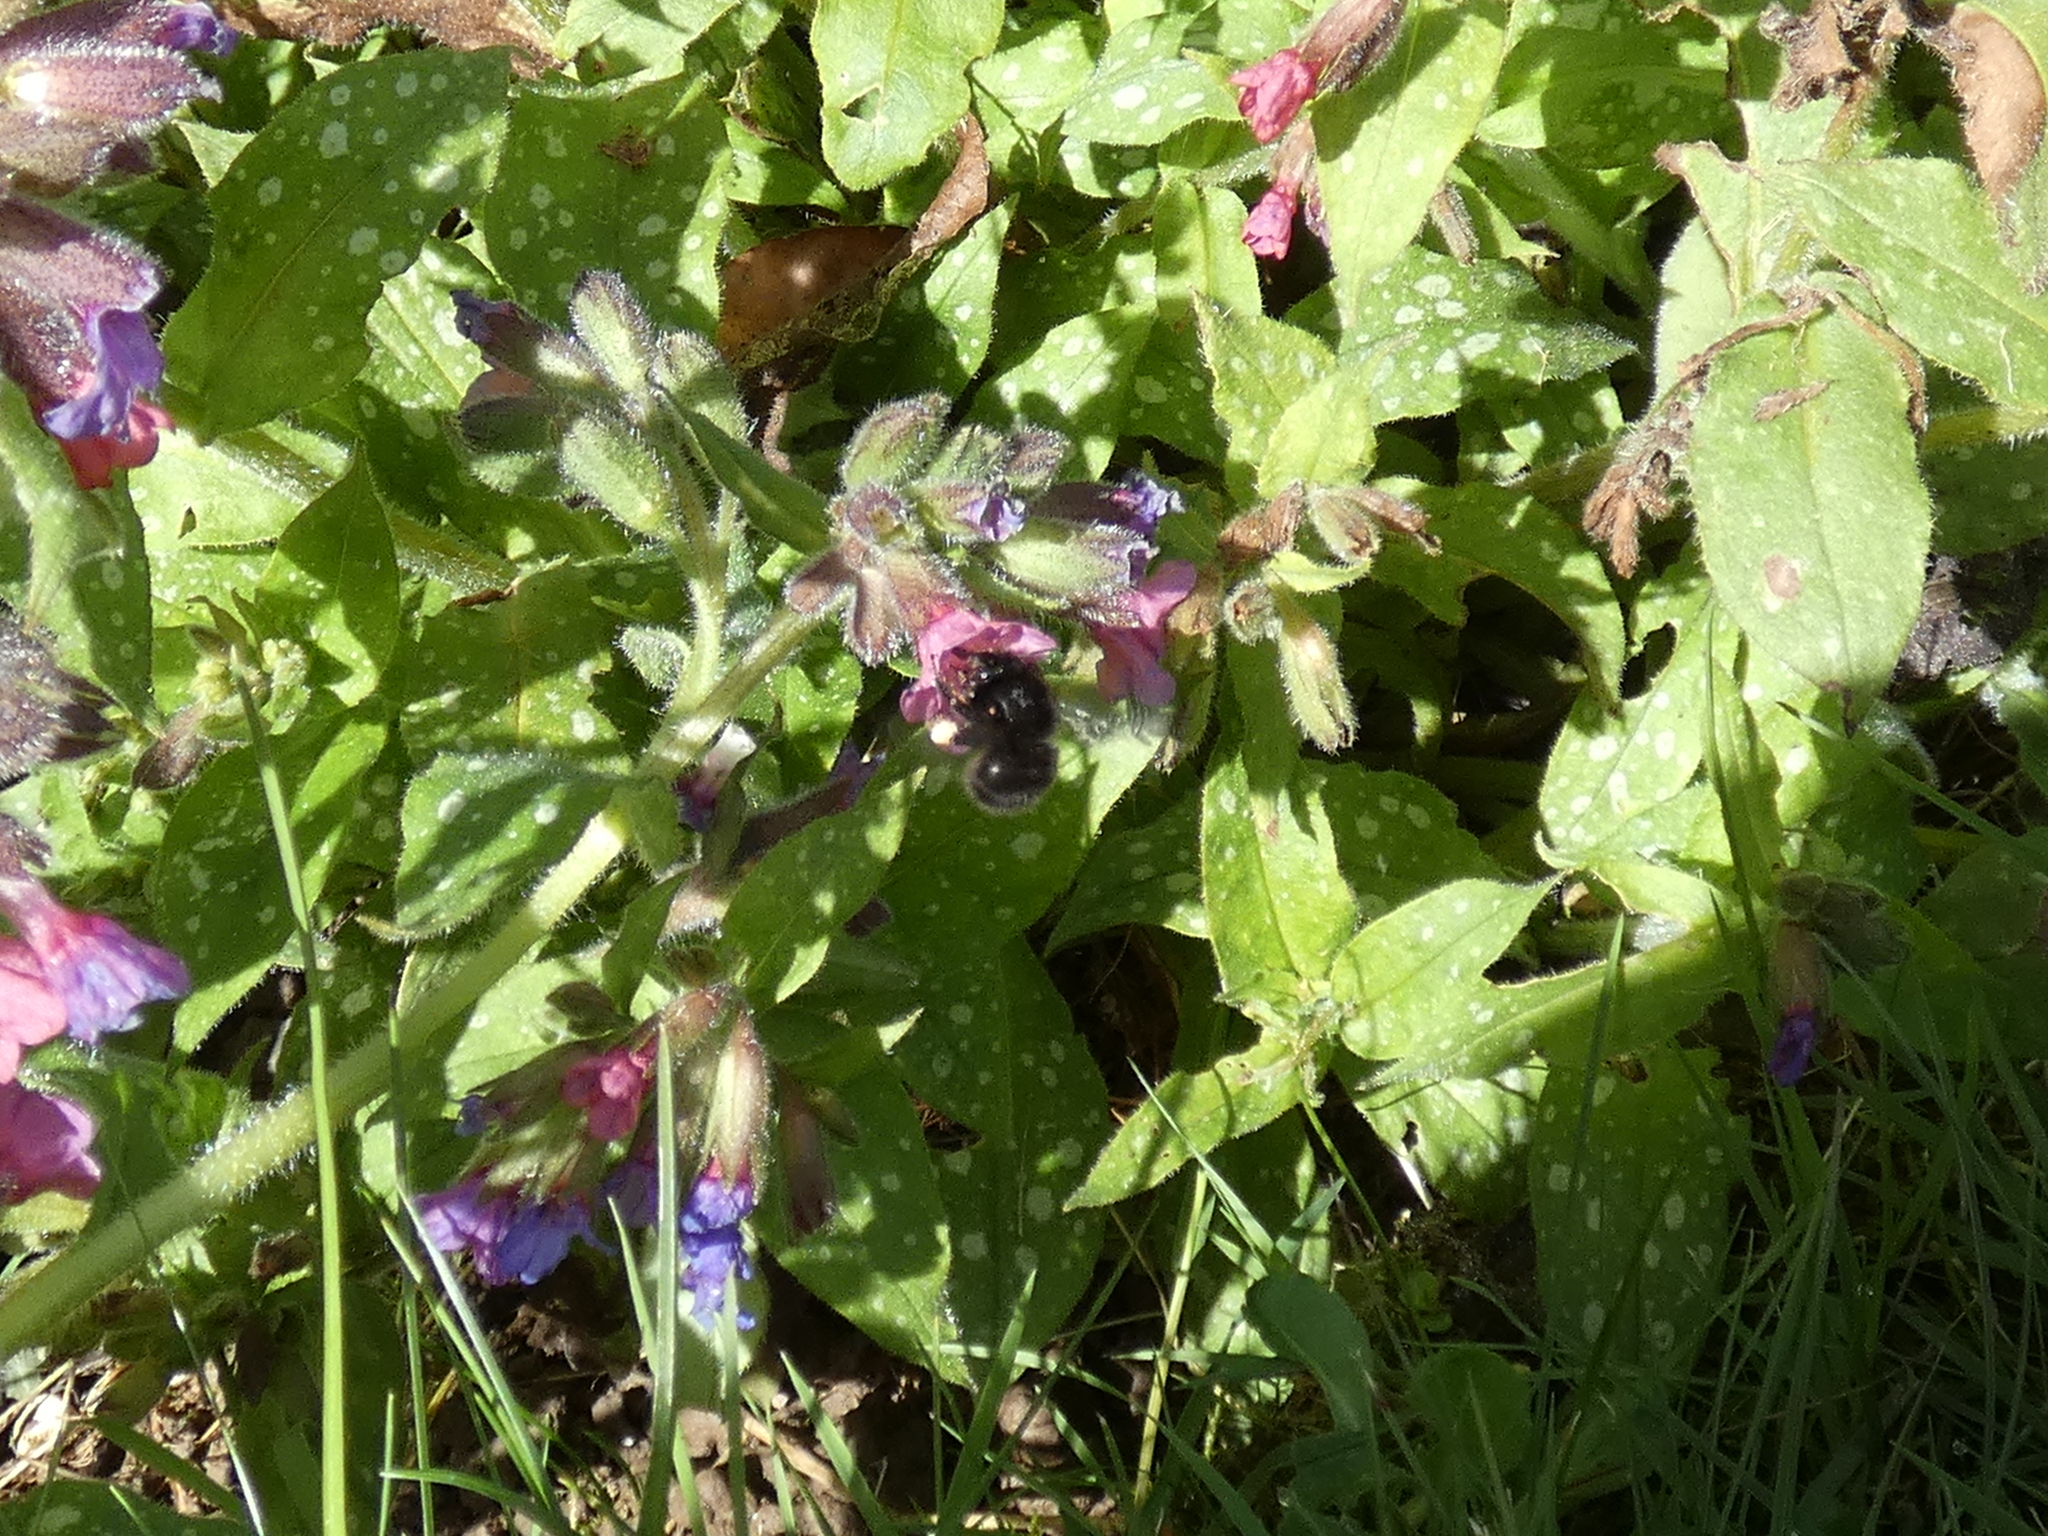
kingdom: Animalia
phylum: Arthropoda
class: Insecta
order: Hymenoptera
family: Apidae
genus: Anthophora
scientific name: Anthophora plumipes
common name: Hairy-footed flower bee
